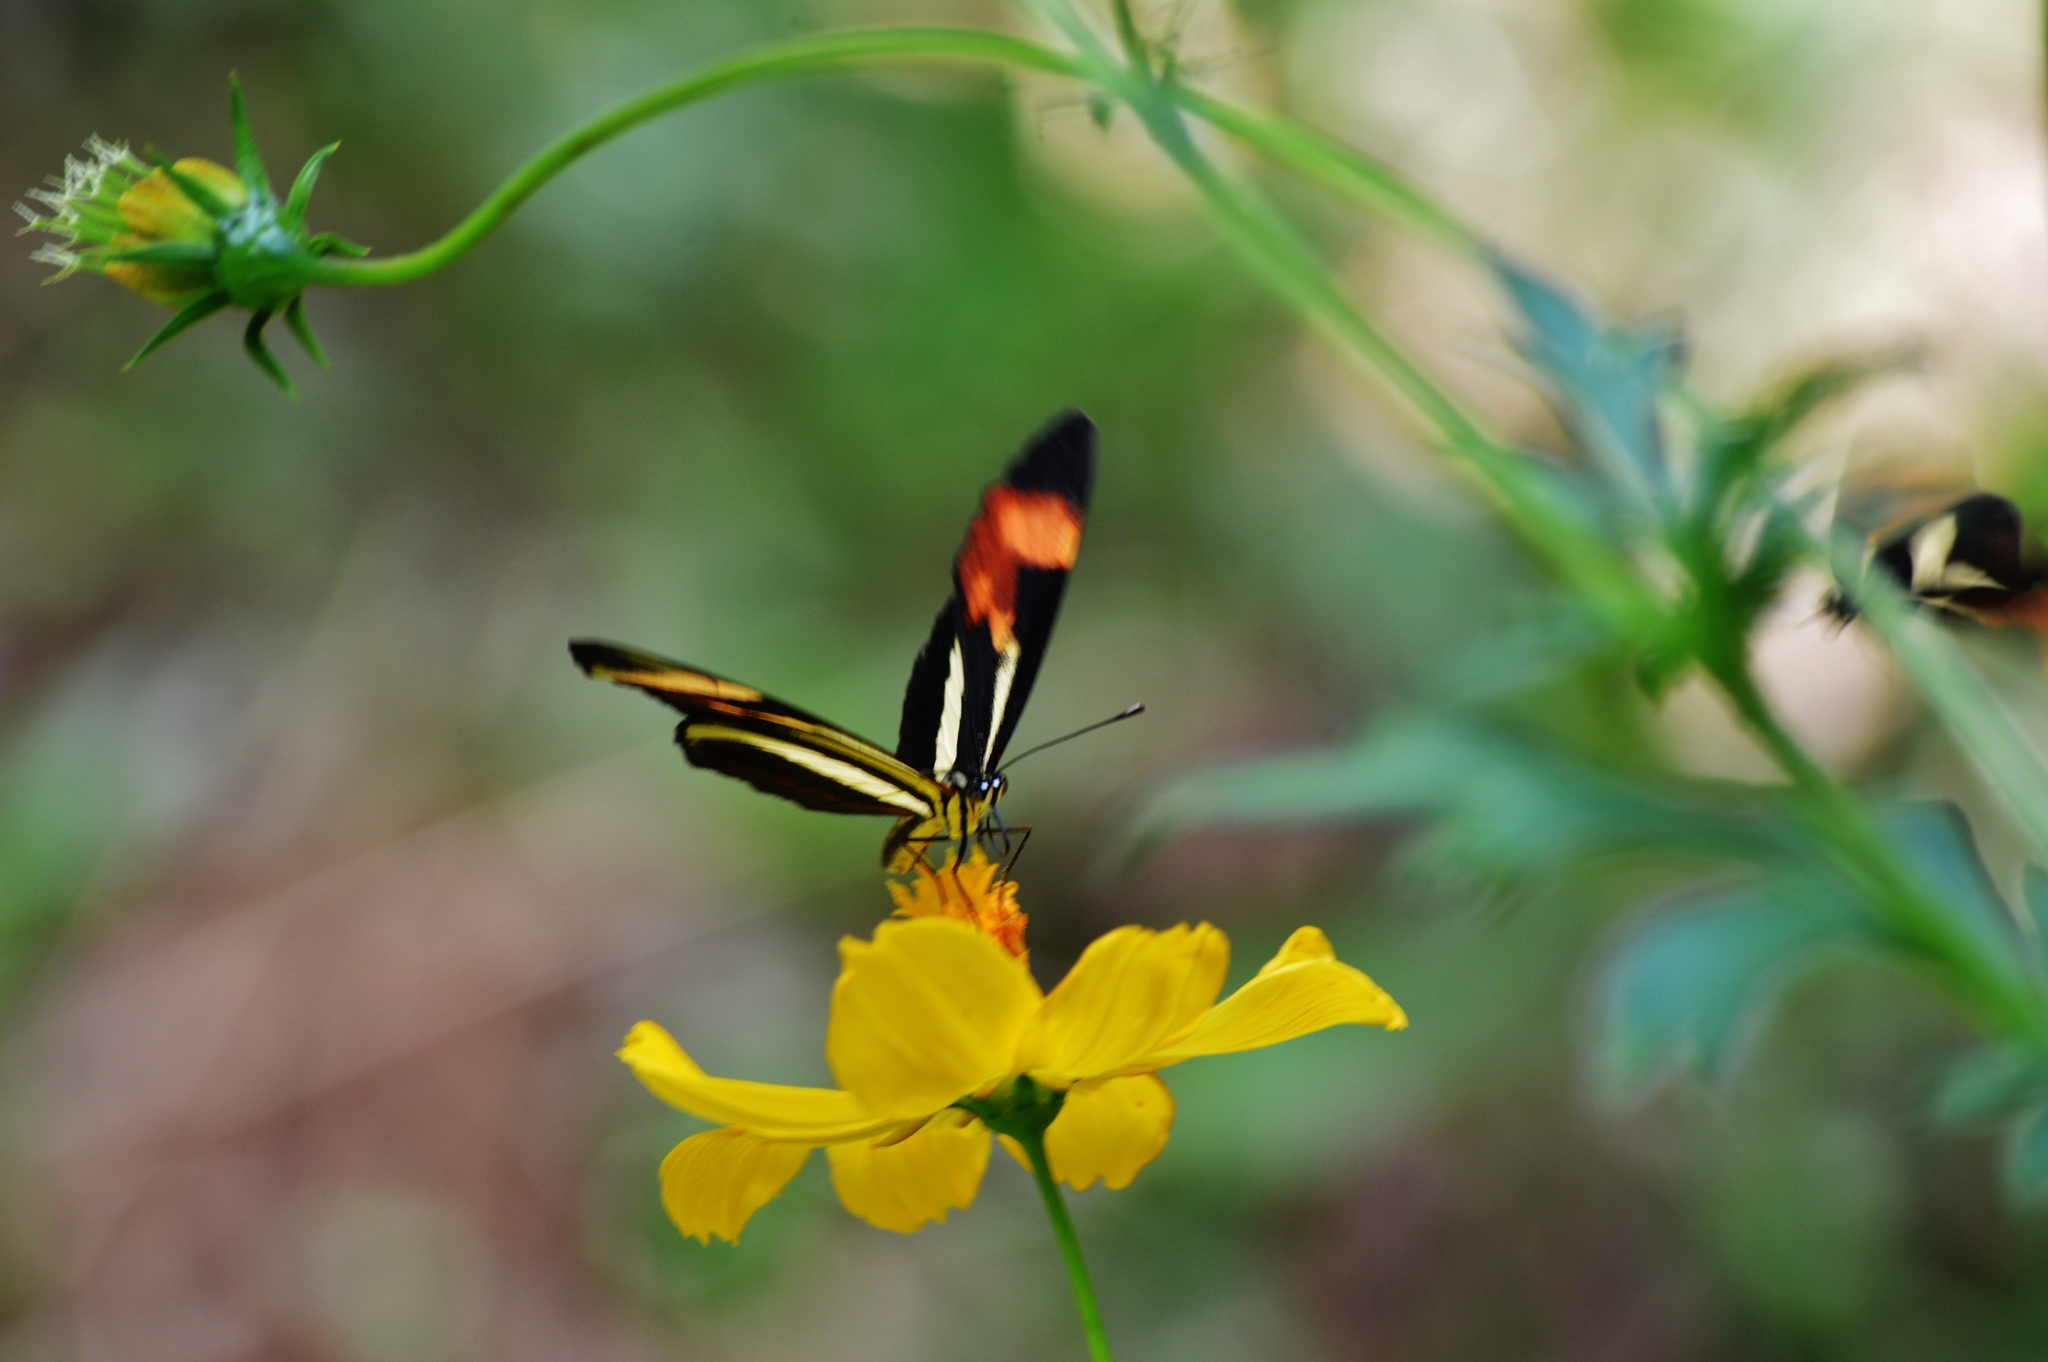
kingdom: Animalia
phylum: Arthropoda
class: Insecta
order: Lepidoptera
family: Nymphalidae
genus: Eresia
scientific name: Eresia lansdorfi
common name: Lansdorf's crescent
